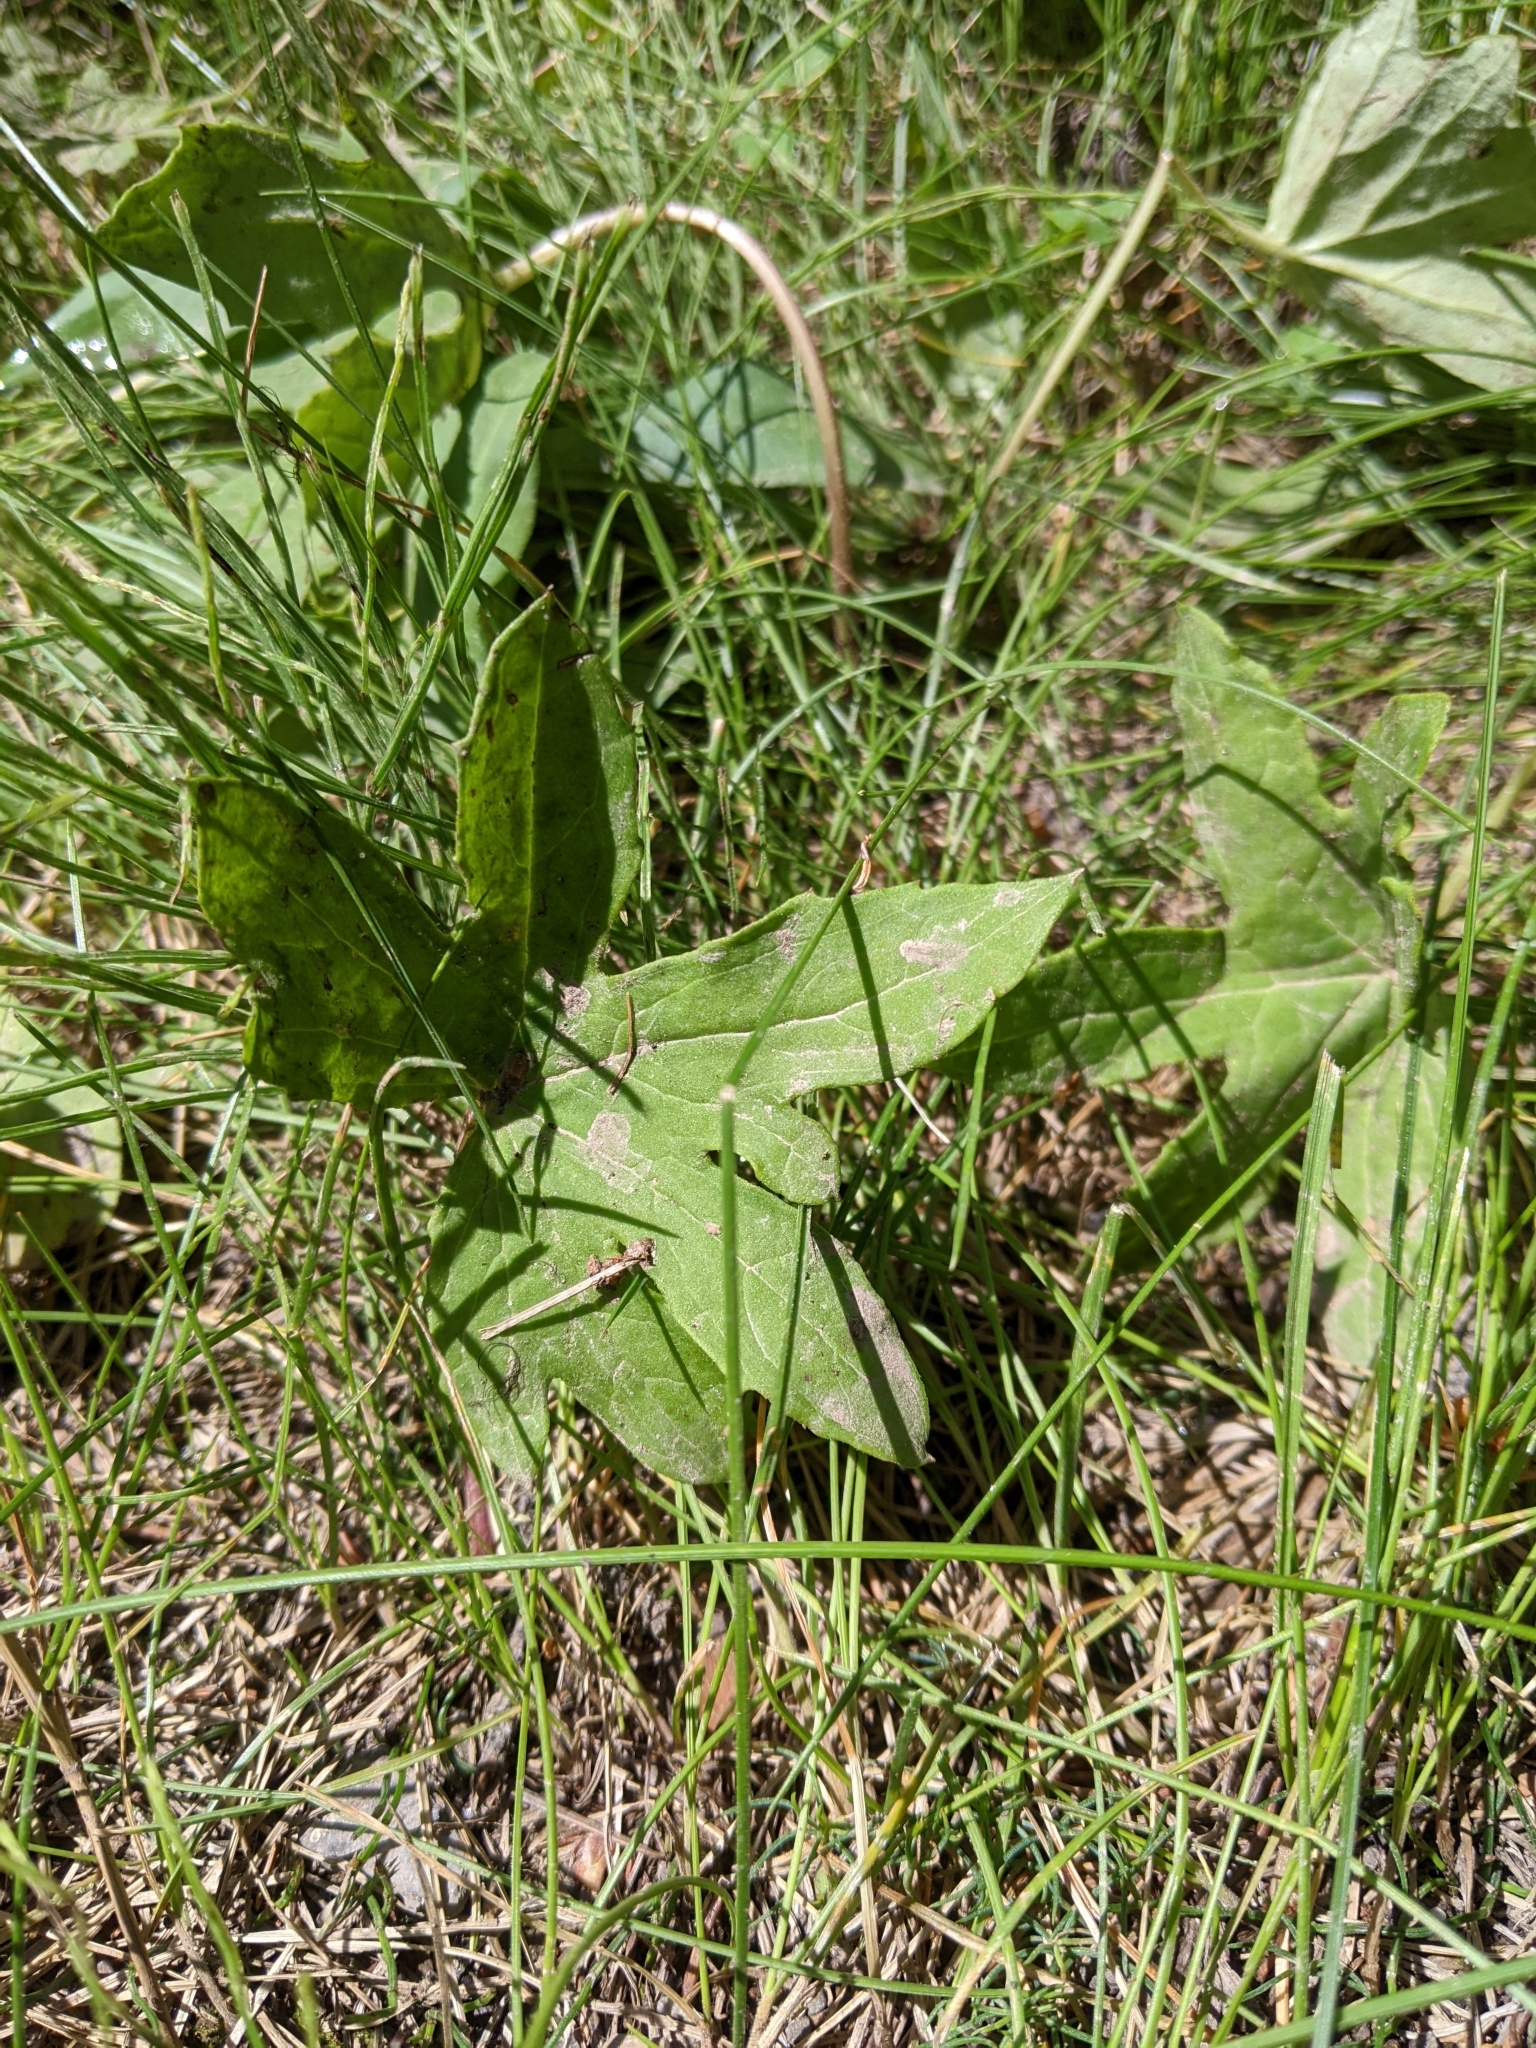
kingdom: Plantae
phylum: Tracheophyta
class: Magnoliopsida
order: Asterales
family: Asteraceae
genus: Petasites
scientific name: Petasites frigidus
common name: Arctic butterbur
